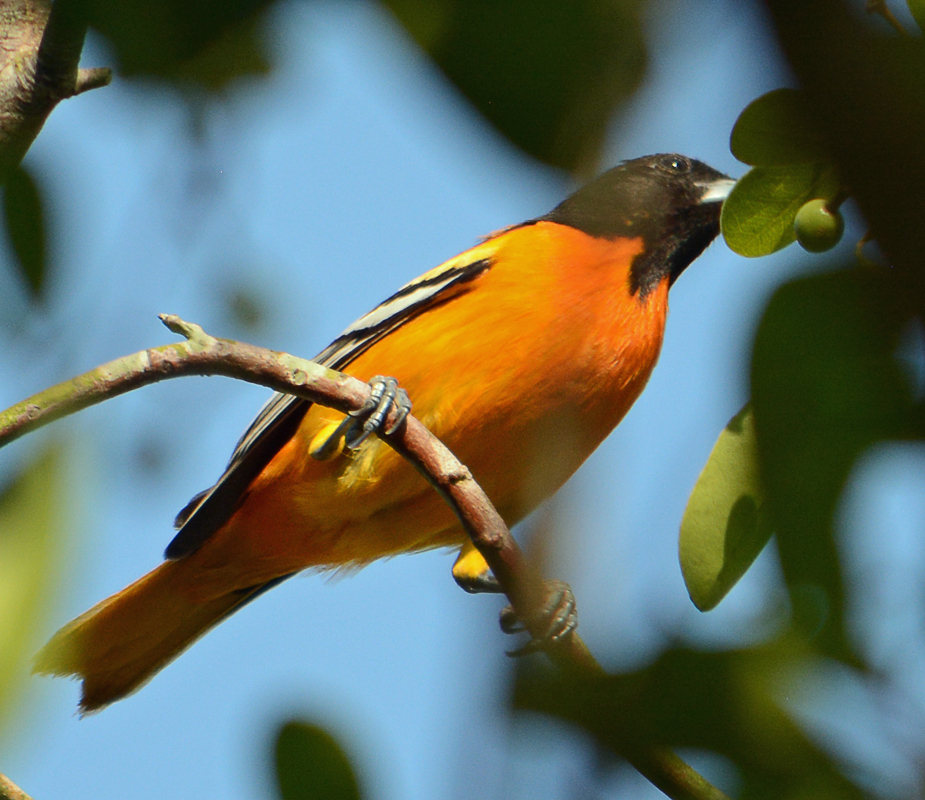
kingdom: Animalia
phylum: Chordata
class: Aves
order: Passeriformes
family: Icteridae
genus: Icterus
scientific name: Icterus galbula
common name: Baltimore oriole
